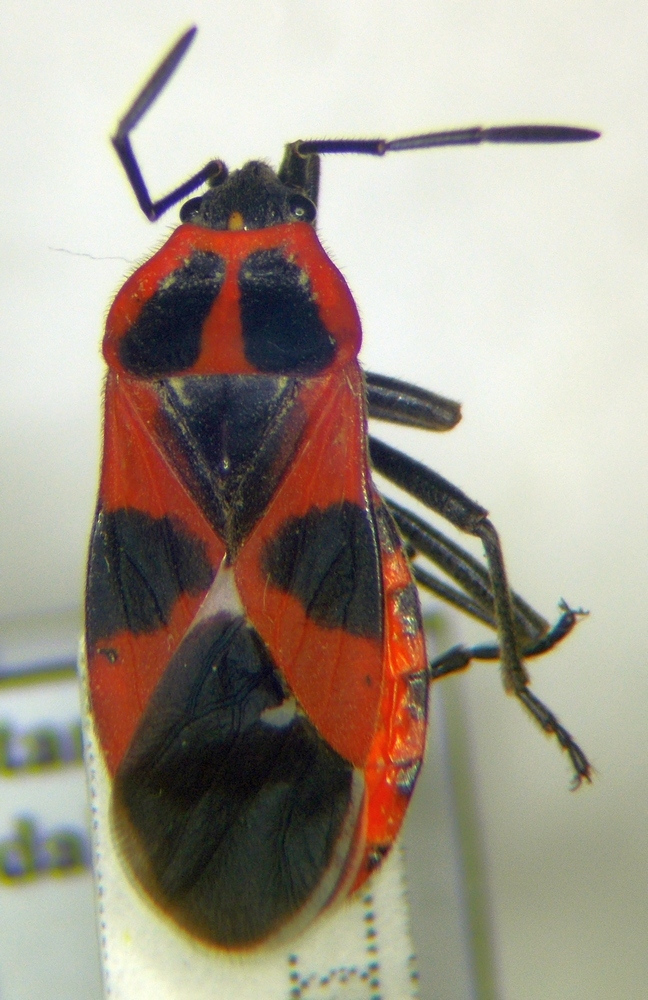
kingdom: Animalia
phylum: Arthropoda
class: Insecta
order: Hemiptera
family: Lygaeidae
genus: Tropidothorax
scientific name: Tropidothorax leucopterus
